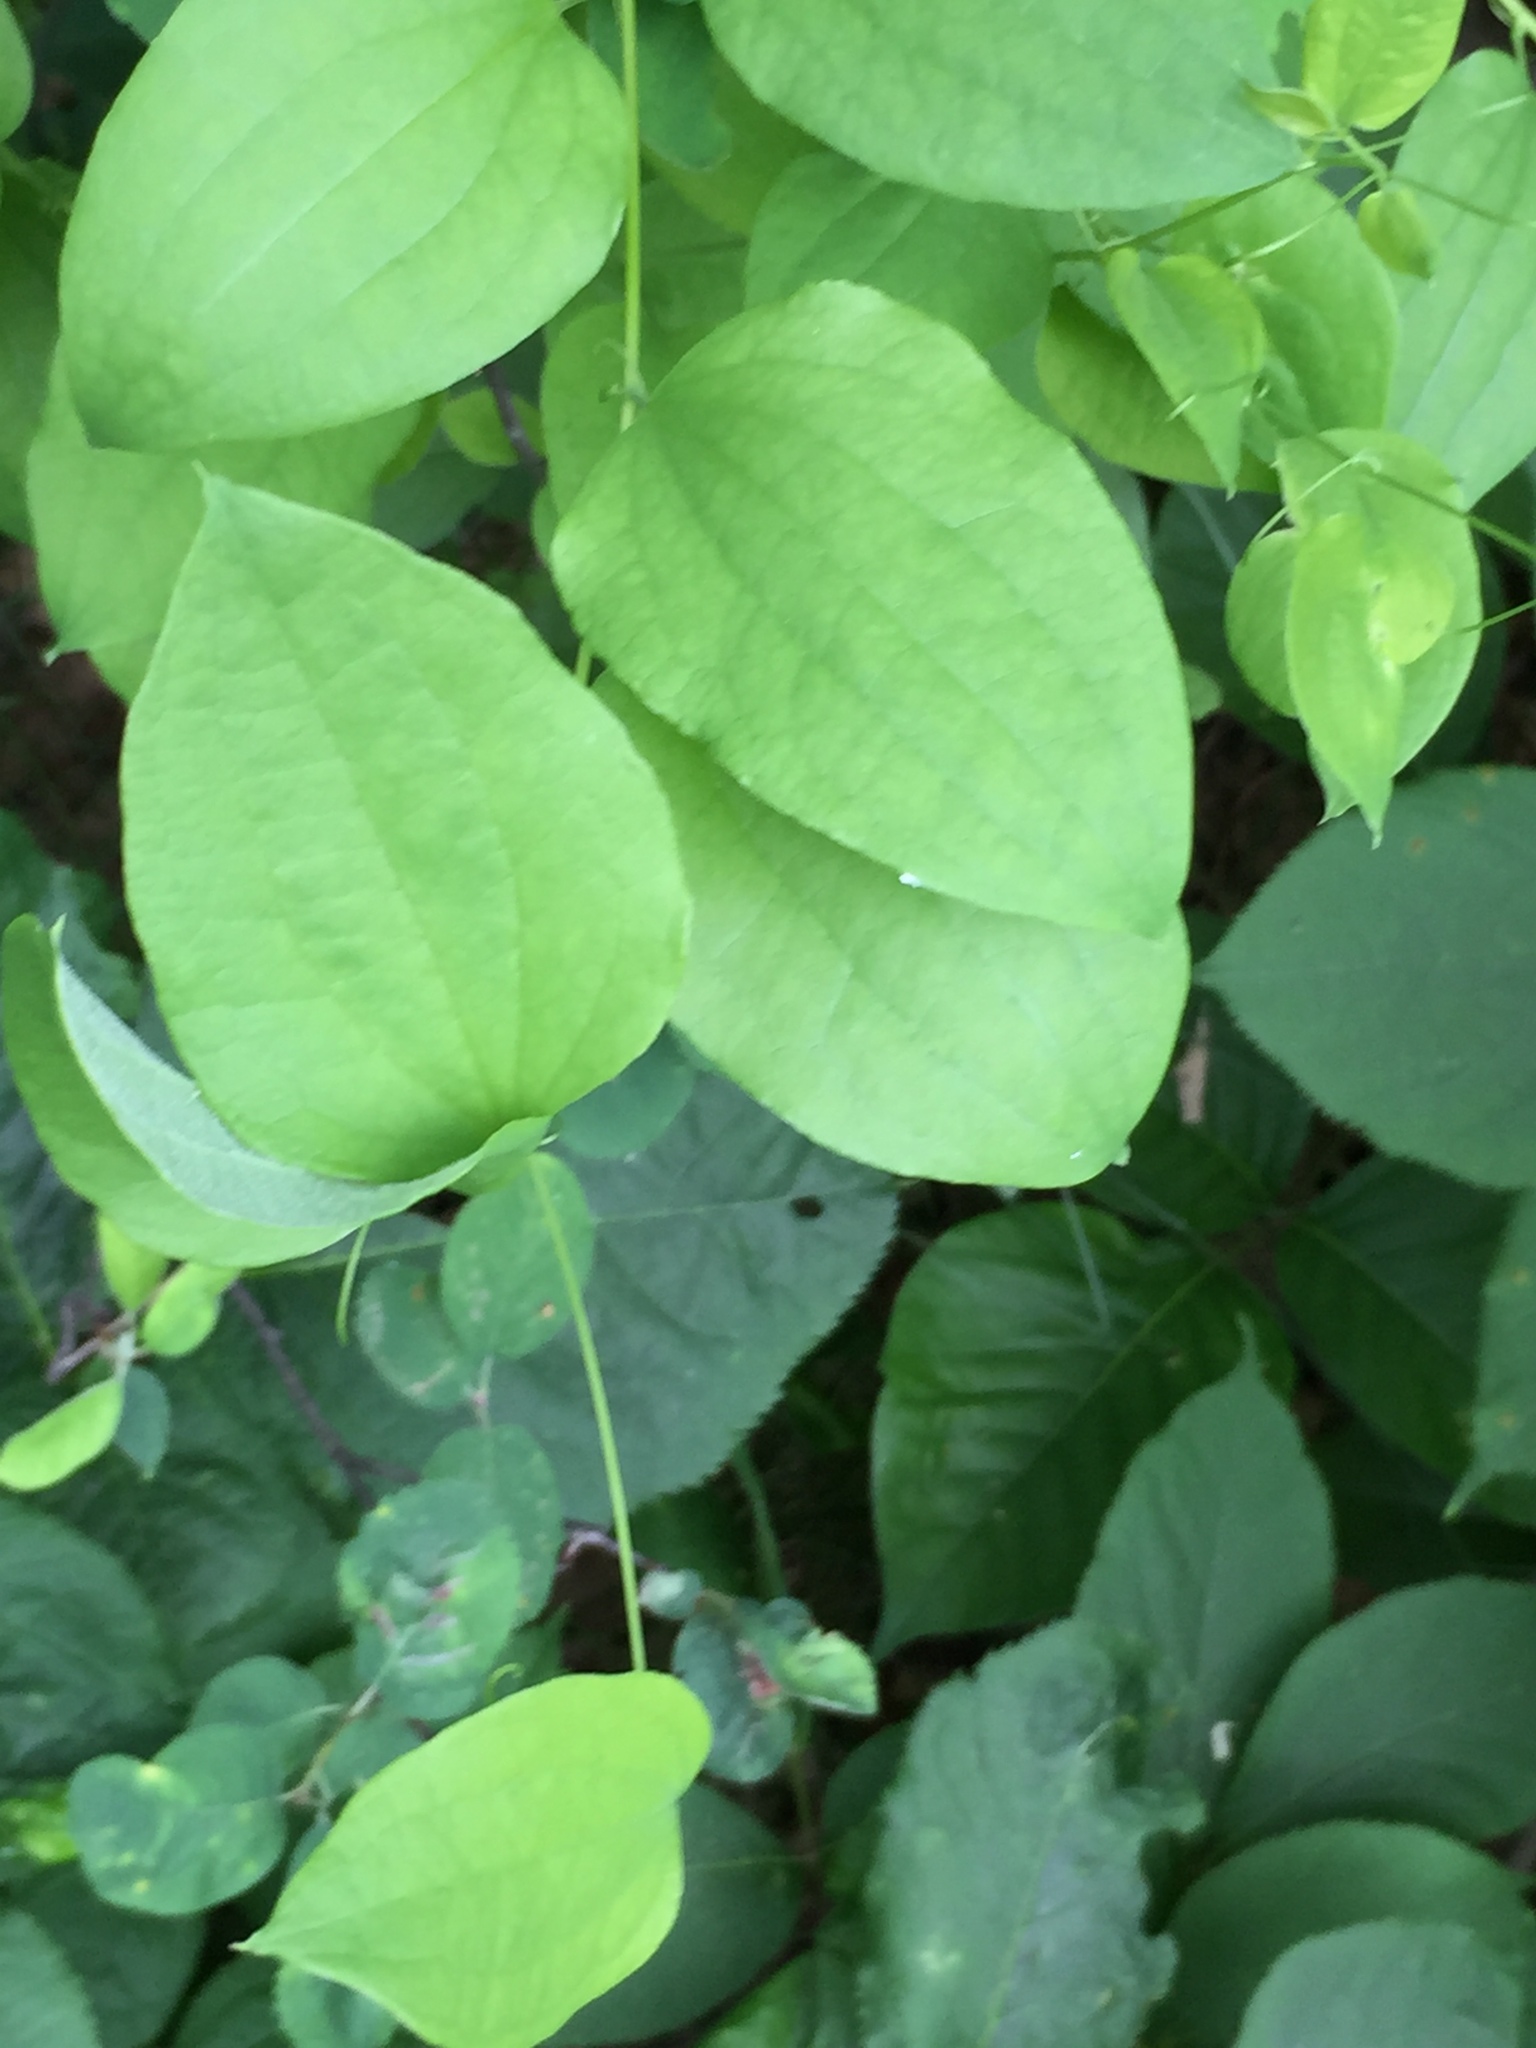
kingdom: Plantae
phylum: Tracheophyta
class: Liliopsida
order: Liliales
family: Smilacaceae
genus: Smilax
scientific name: Smilax lasioneura
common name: Blue ridge carrionflower
